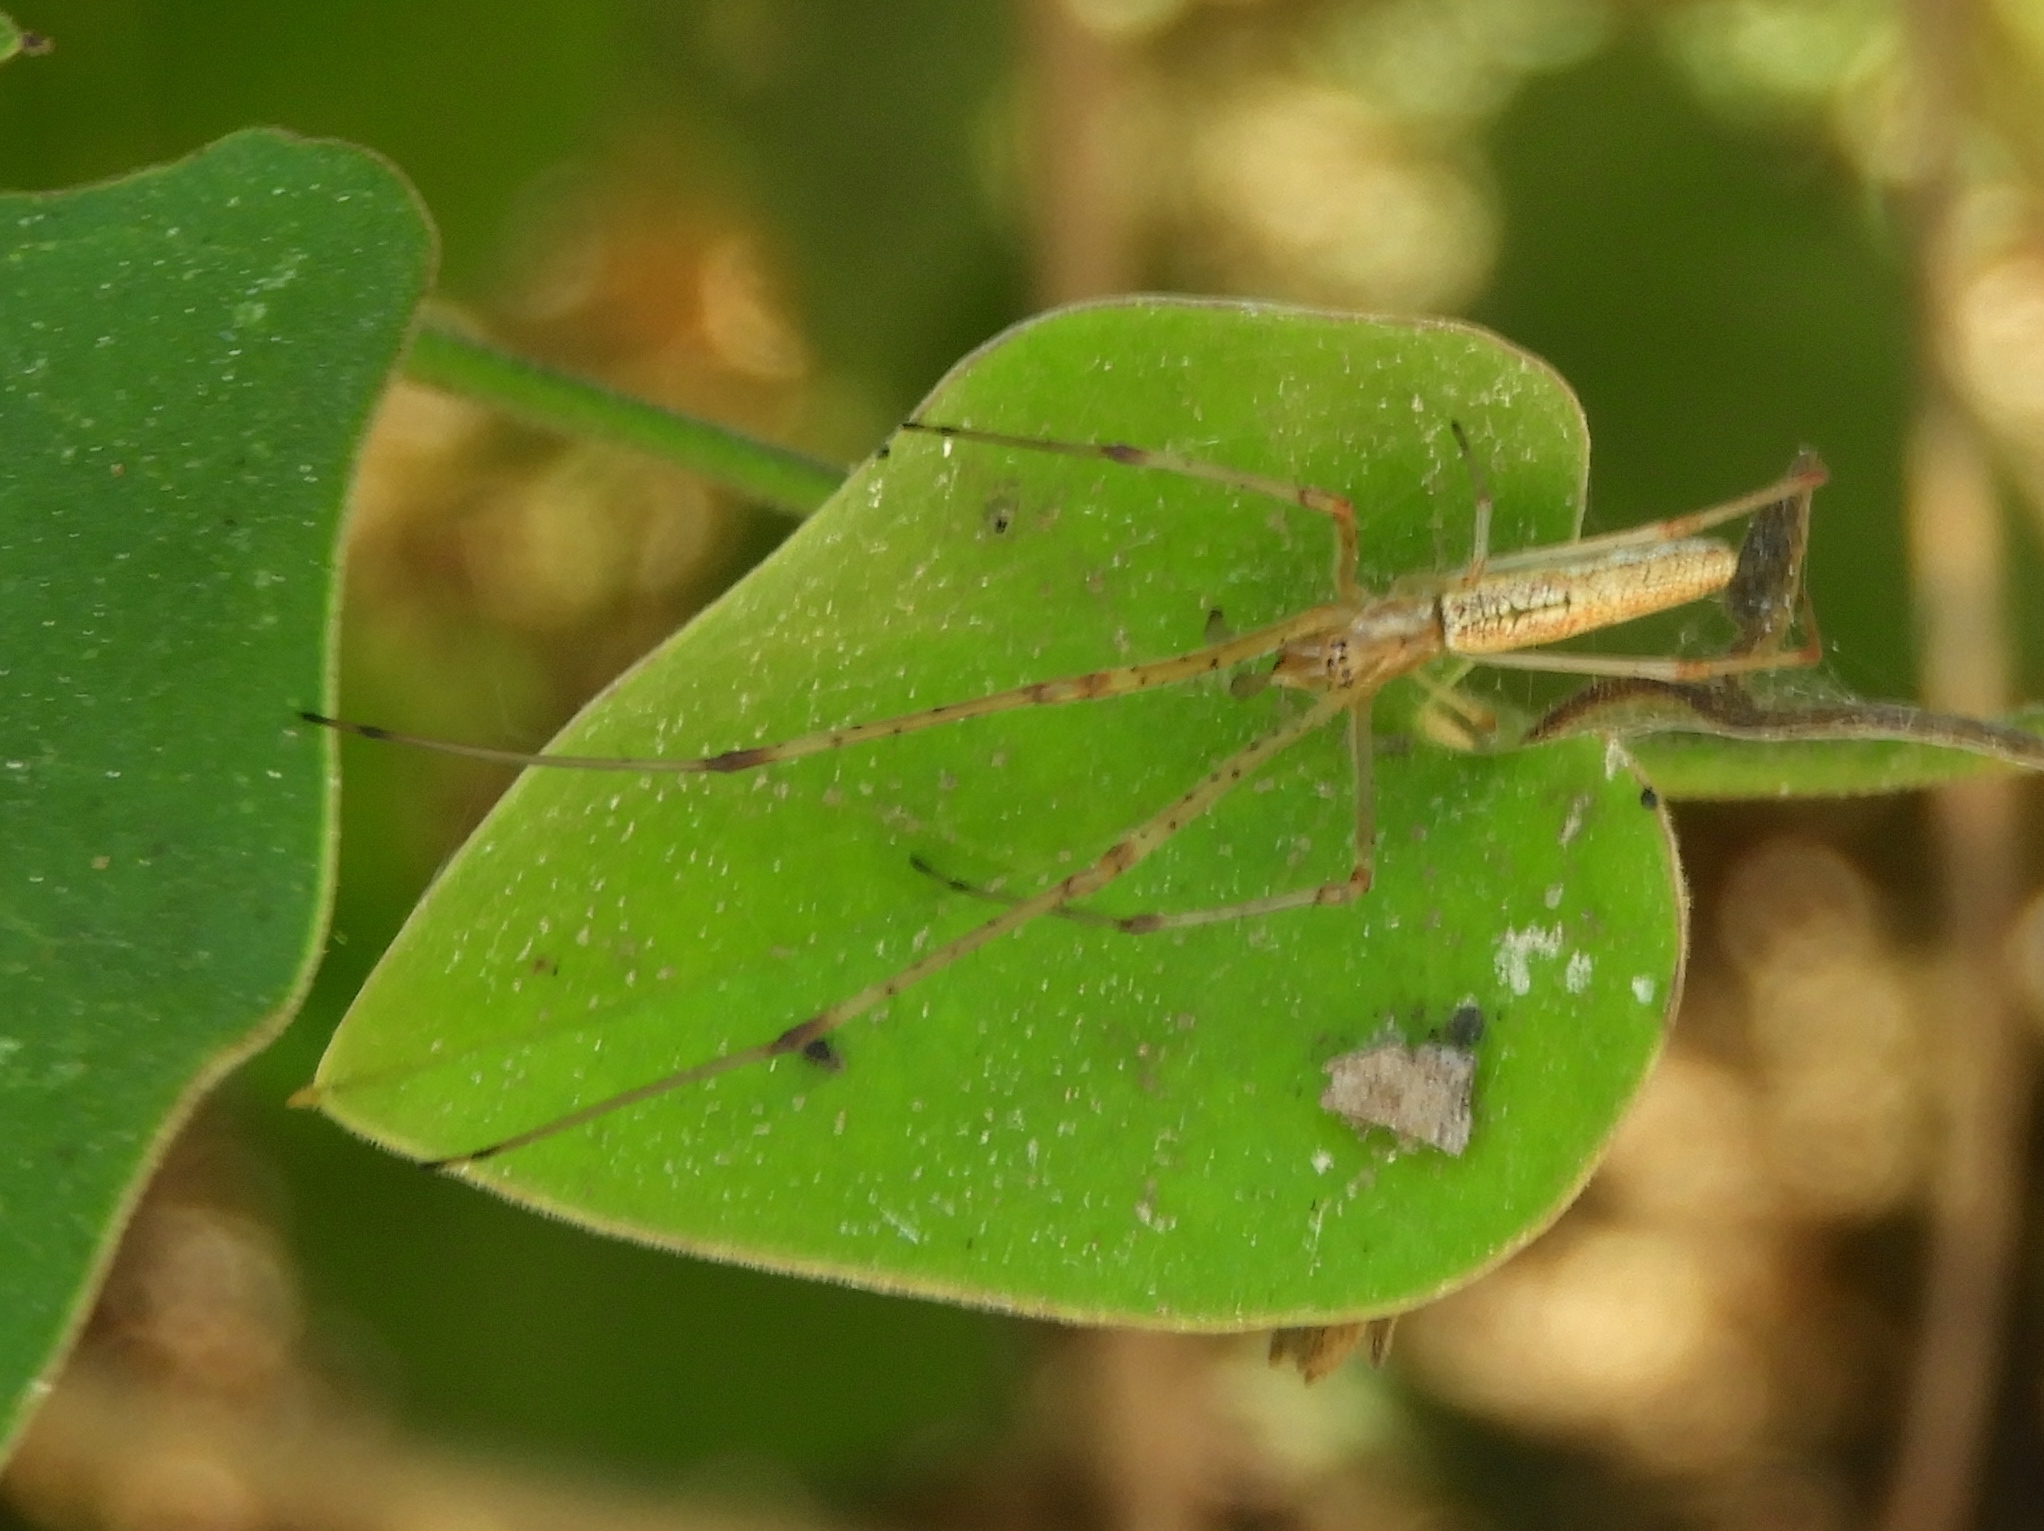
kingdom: Animalia
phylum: Arthropoda
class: Arachnida
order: Araneae
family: Tetragnathidae
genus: Tetragnatha
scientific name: Tetragnatha
